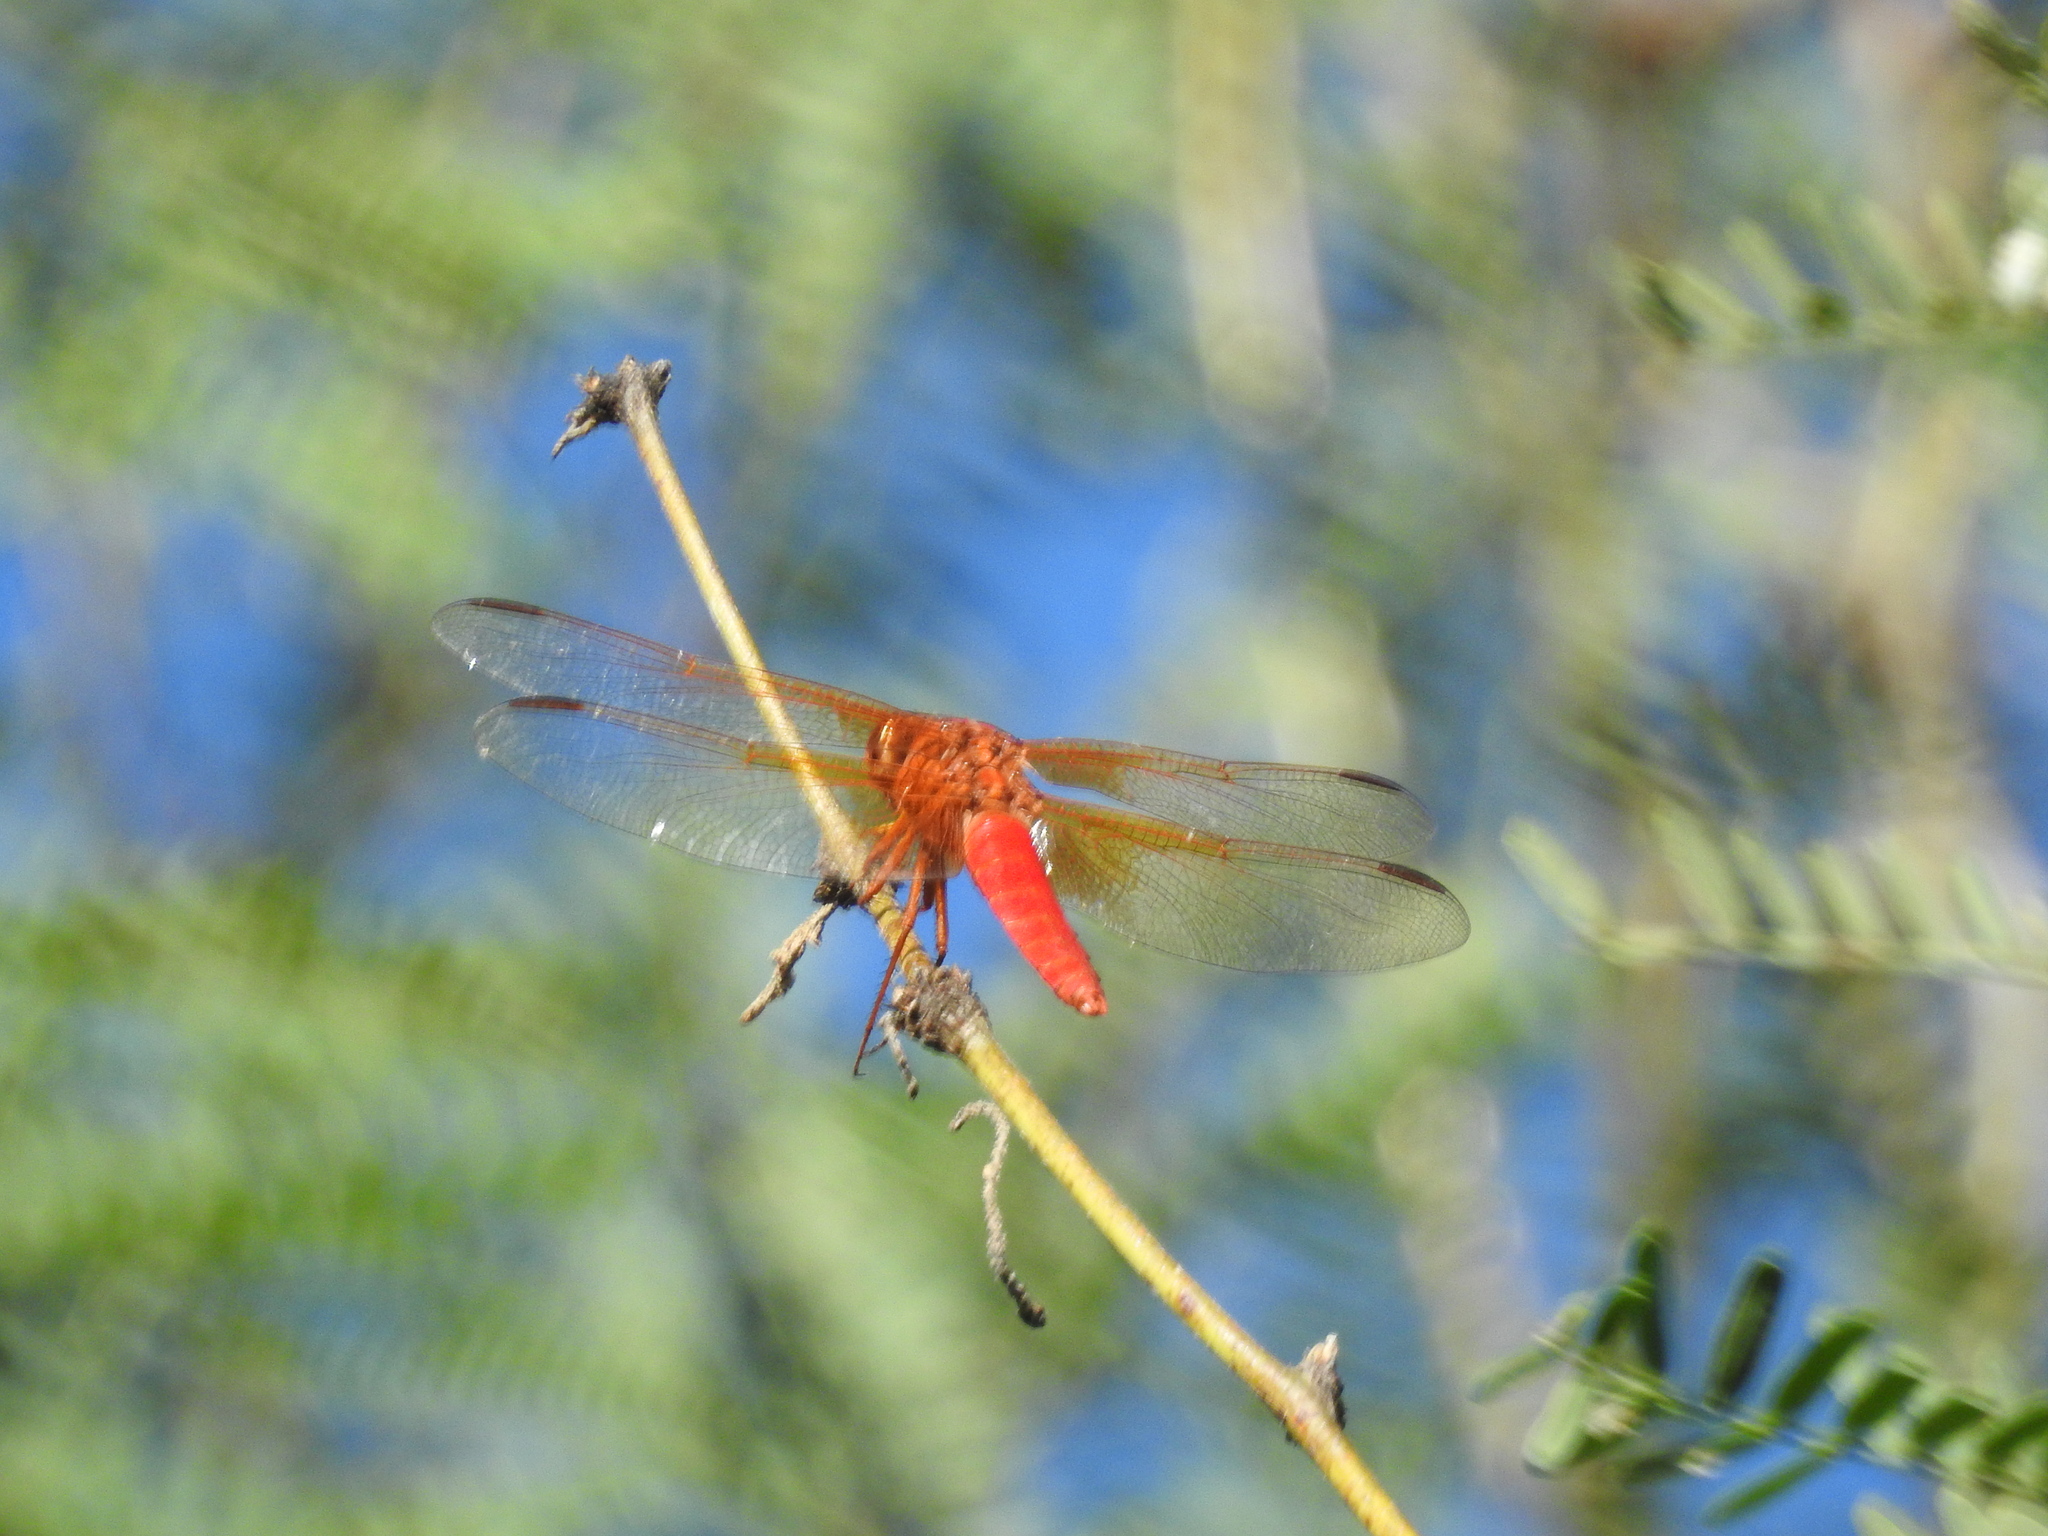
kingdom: Animalia
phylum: Arthropoda
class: Insecta
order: Odonata
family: Libellulidae
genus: Libellula
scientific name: Libellula croceipennis
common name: Neon skimmer
